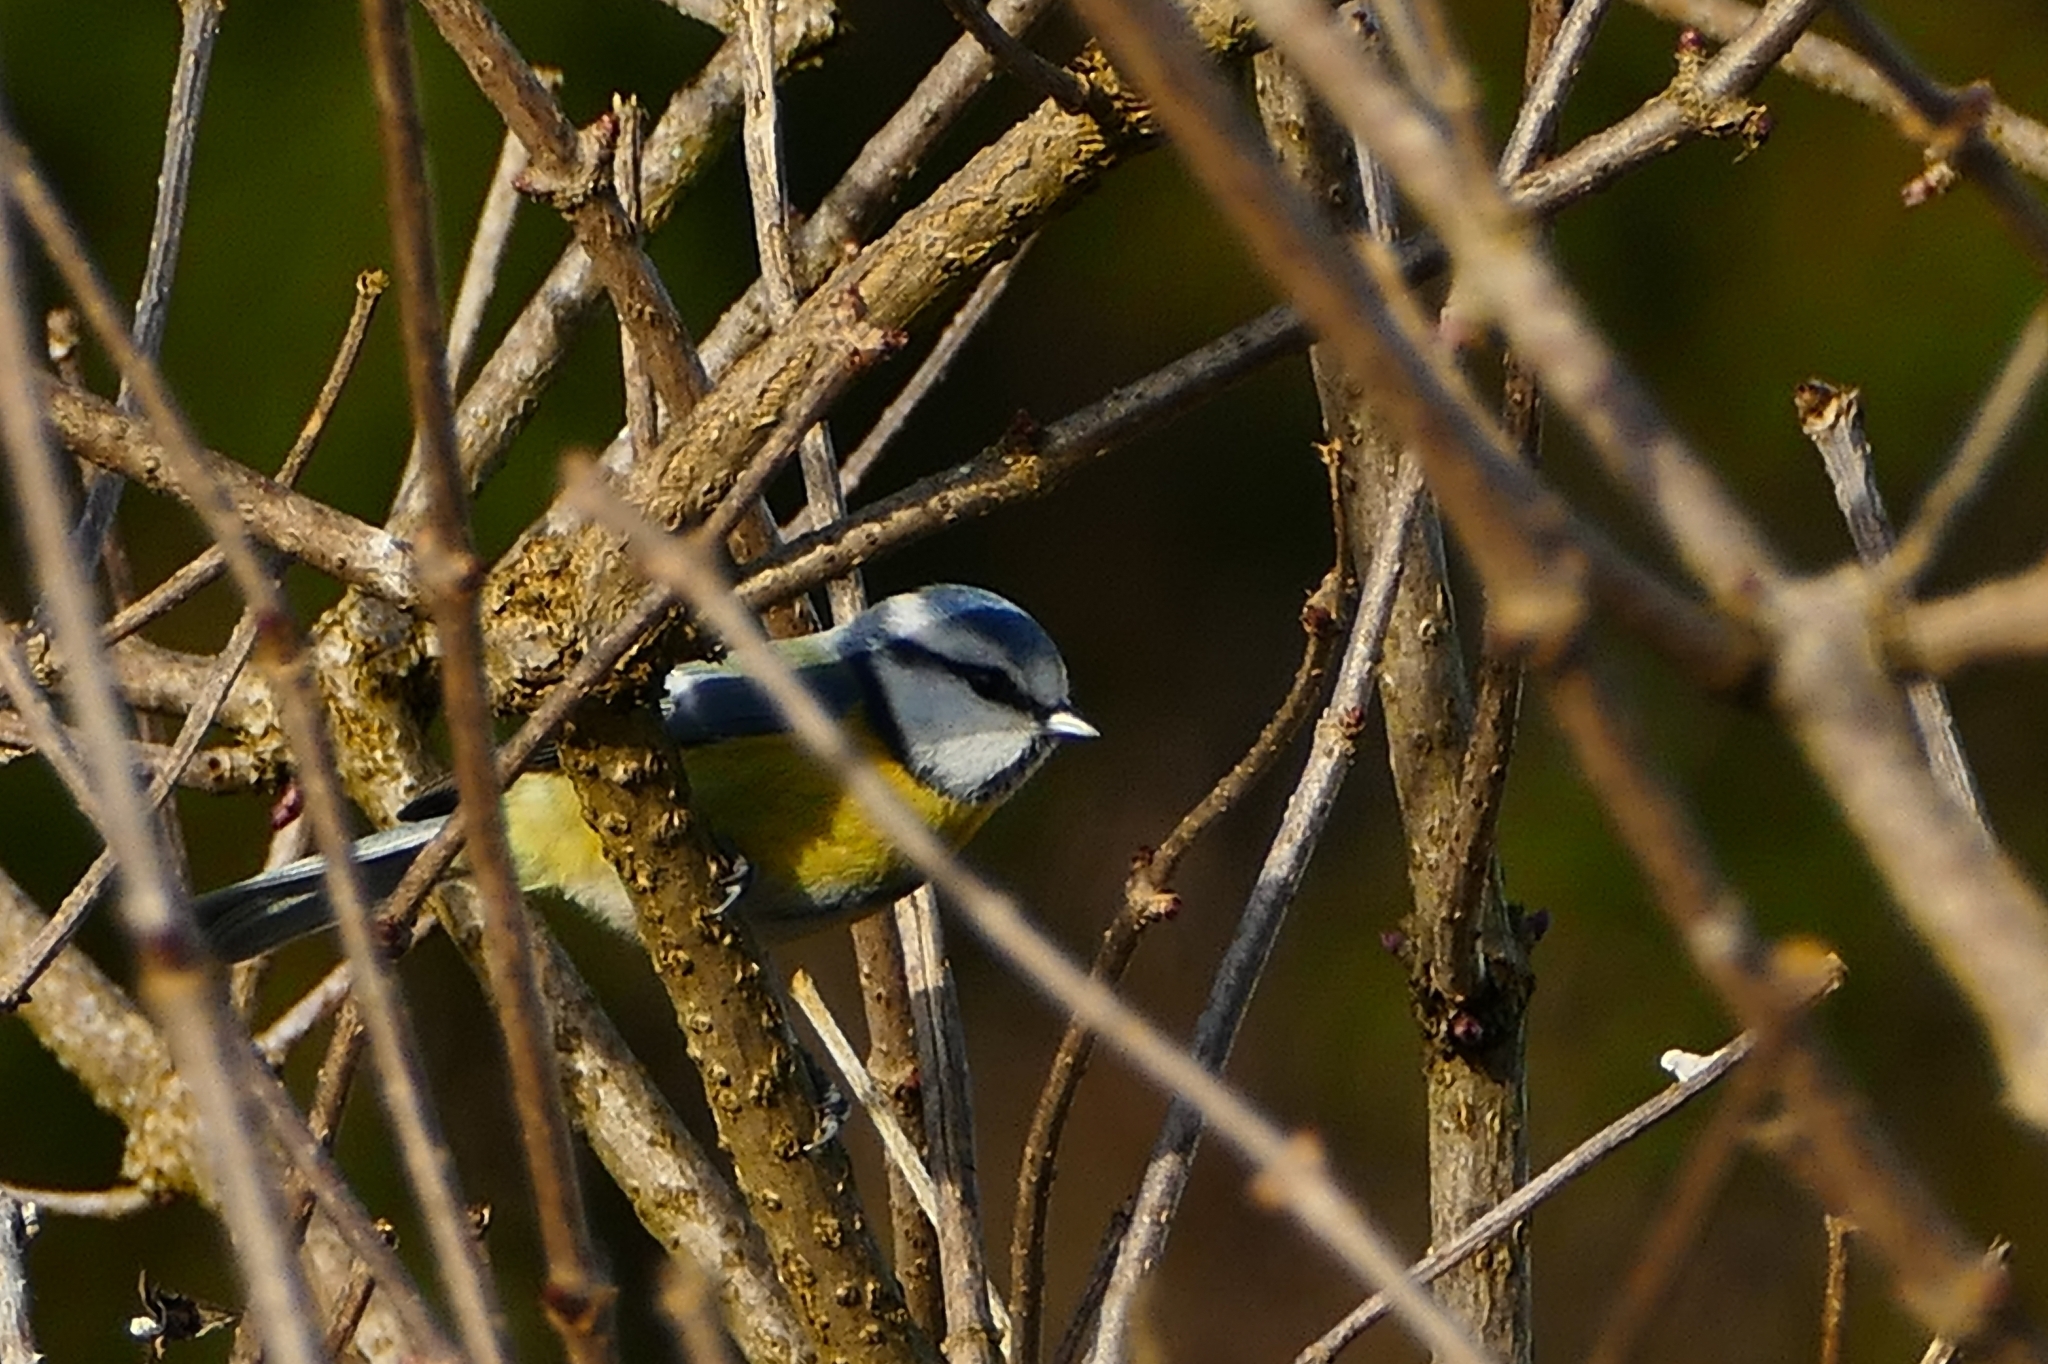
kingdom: Animalia
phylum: Chordata
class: Aves
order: Passeriformes
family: Paridae
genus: Cyanistes
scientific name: Cyanistes caeruleus
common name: Eurasian blue tit
